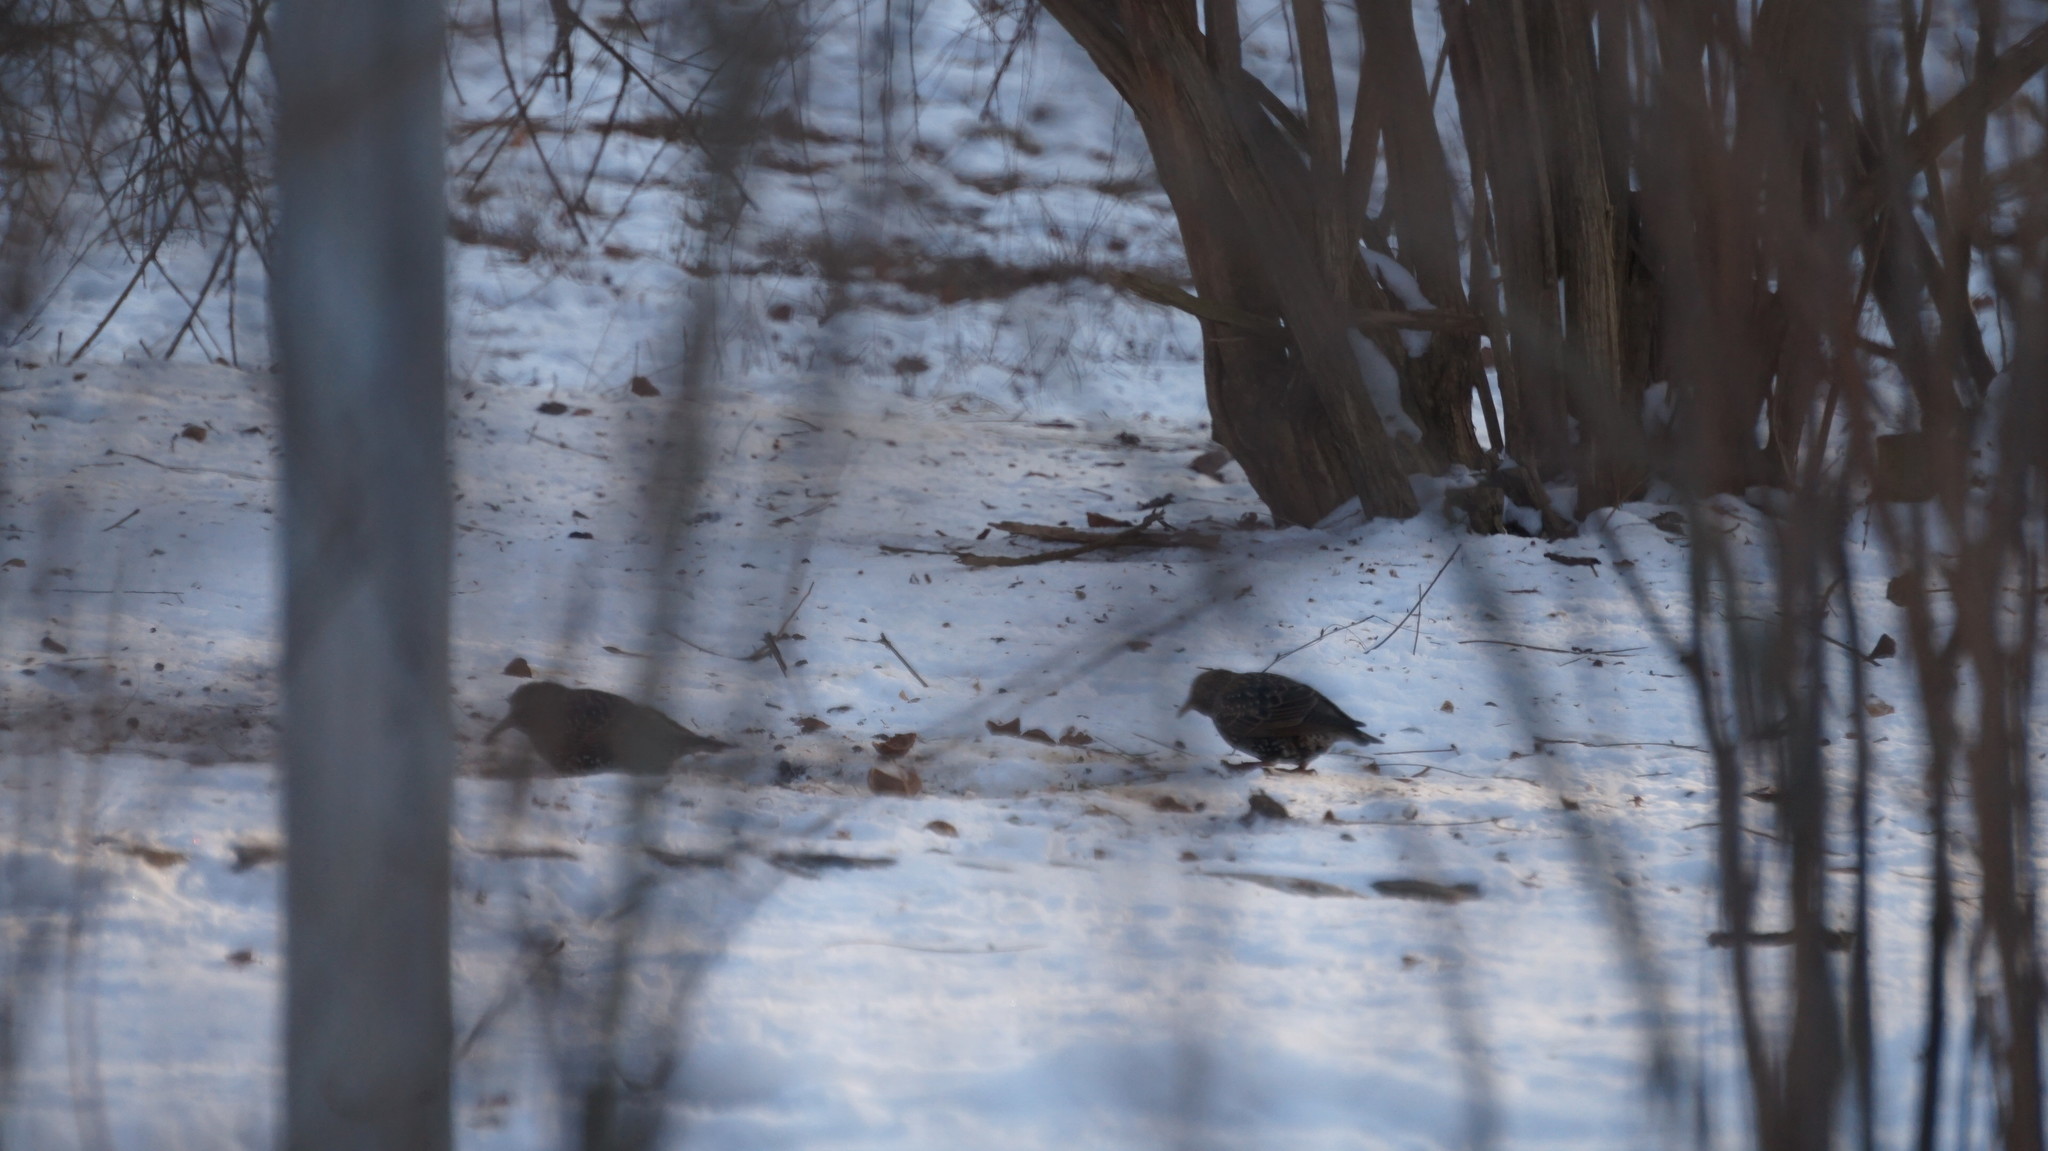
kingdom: Animalia
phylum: Chordata
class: Aves
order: Passeriformes
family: Sturnidae
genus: Sturnus
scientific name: Sturnus vulgaris
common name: Common starling
